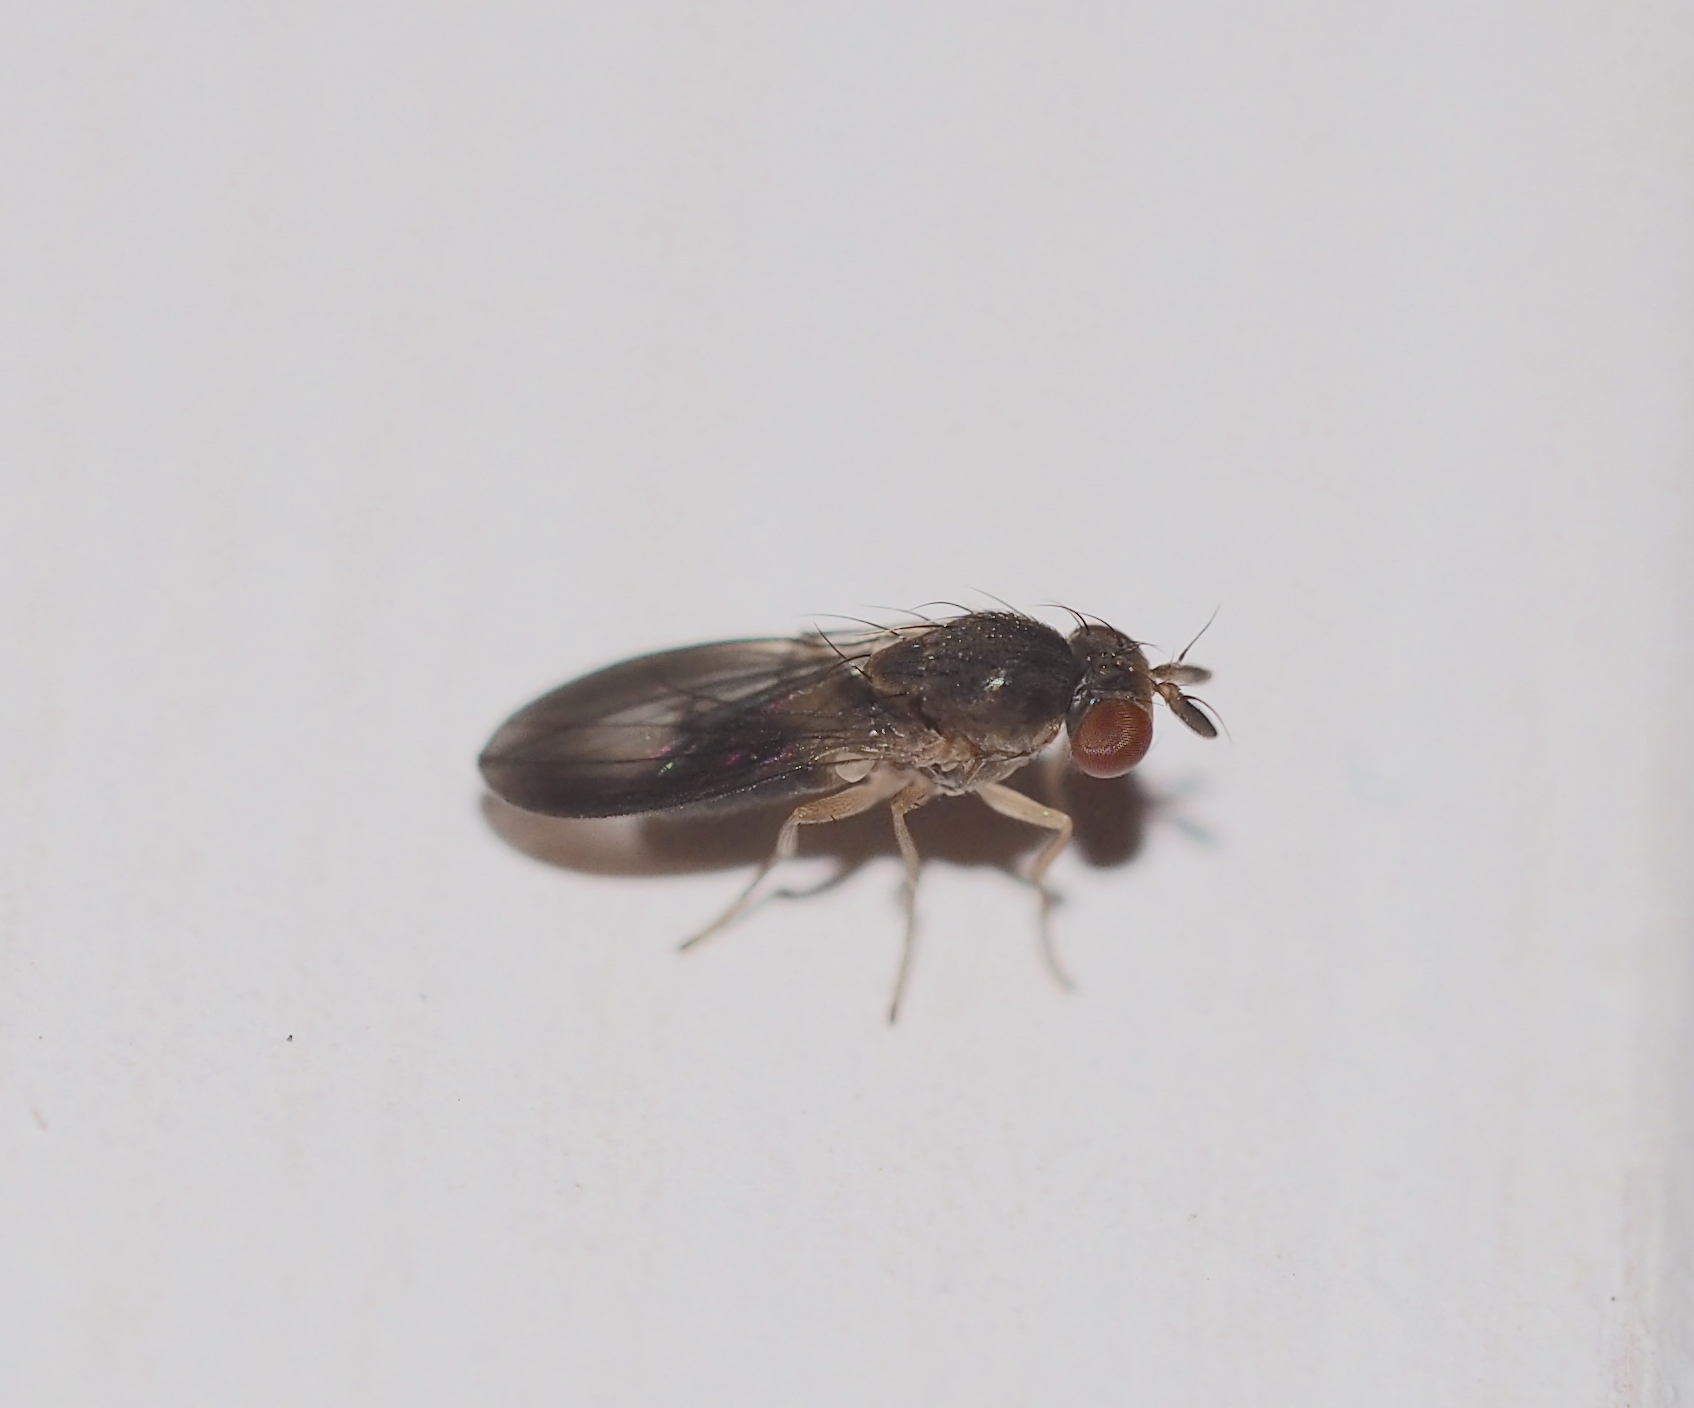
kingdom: Animalia
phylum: Arthropoda
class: Insecta
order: Diptera
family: Diastatidae
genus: Campichoeta
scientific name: Campichoeta punctum
